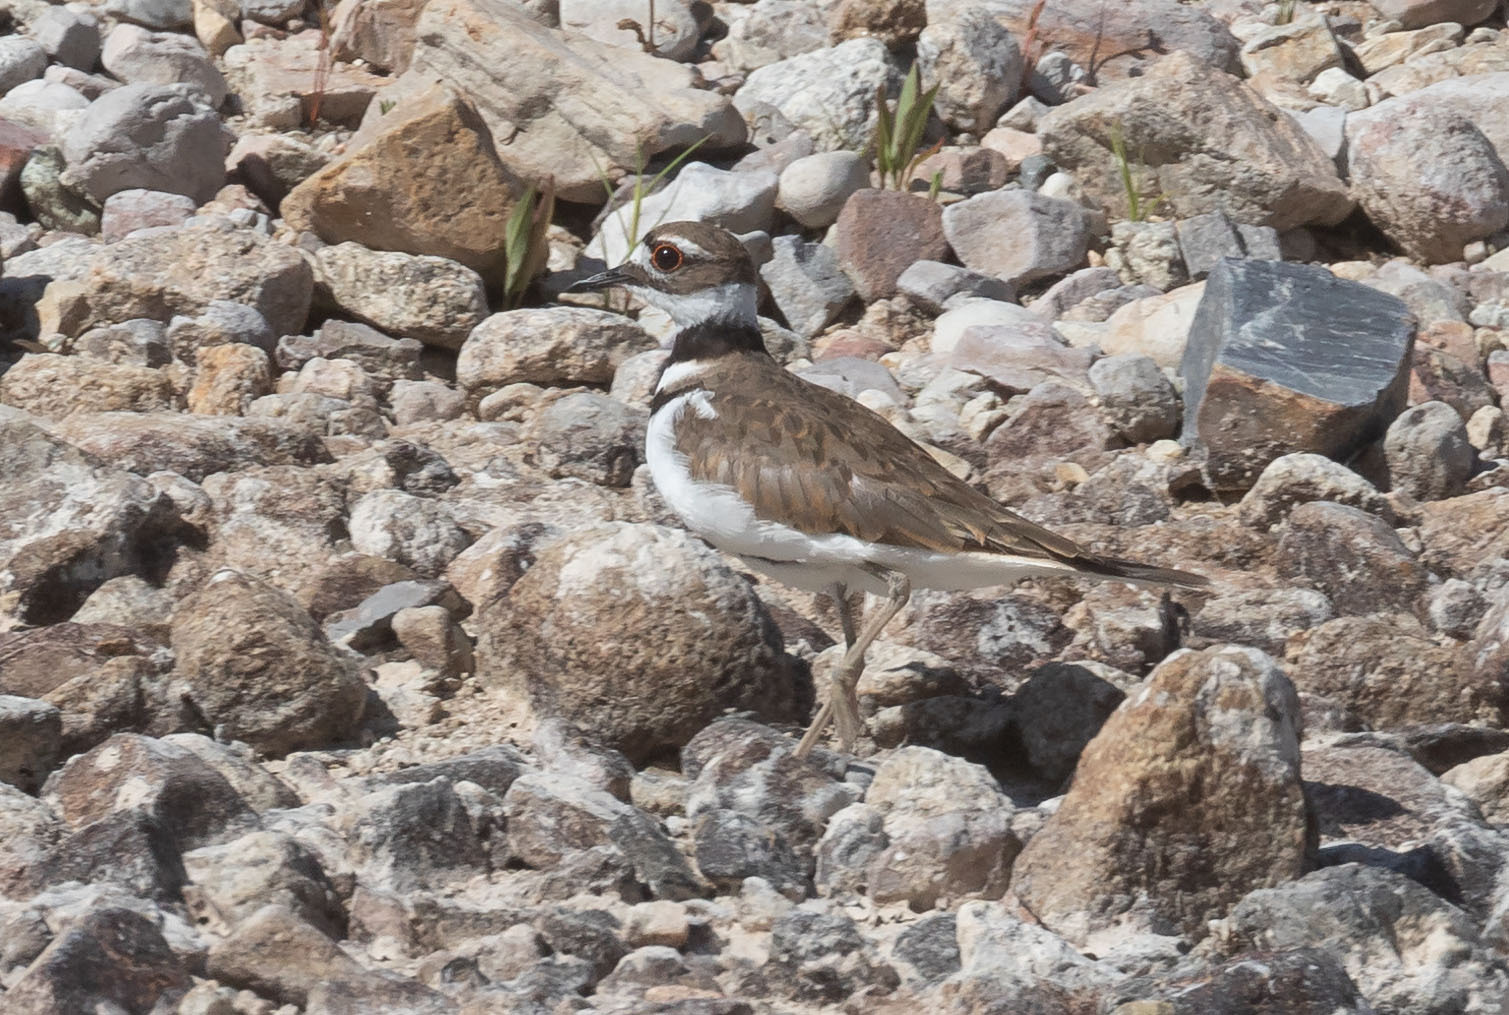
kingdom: Animalia
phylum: Chordata
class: Aves
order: Charadriiformes
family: Charadriidae
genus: Charadrius
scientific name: Charadrius vociferus
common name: Killdeer
